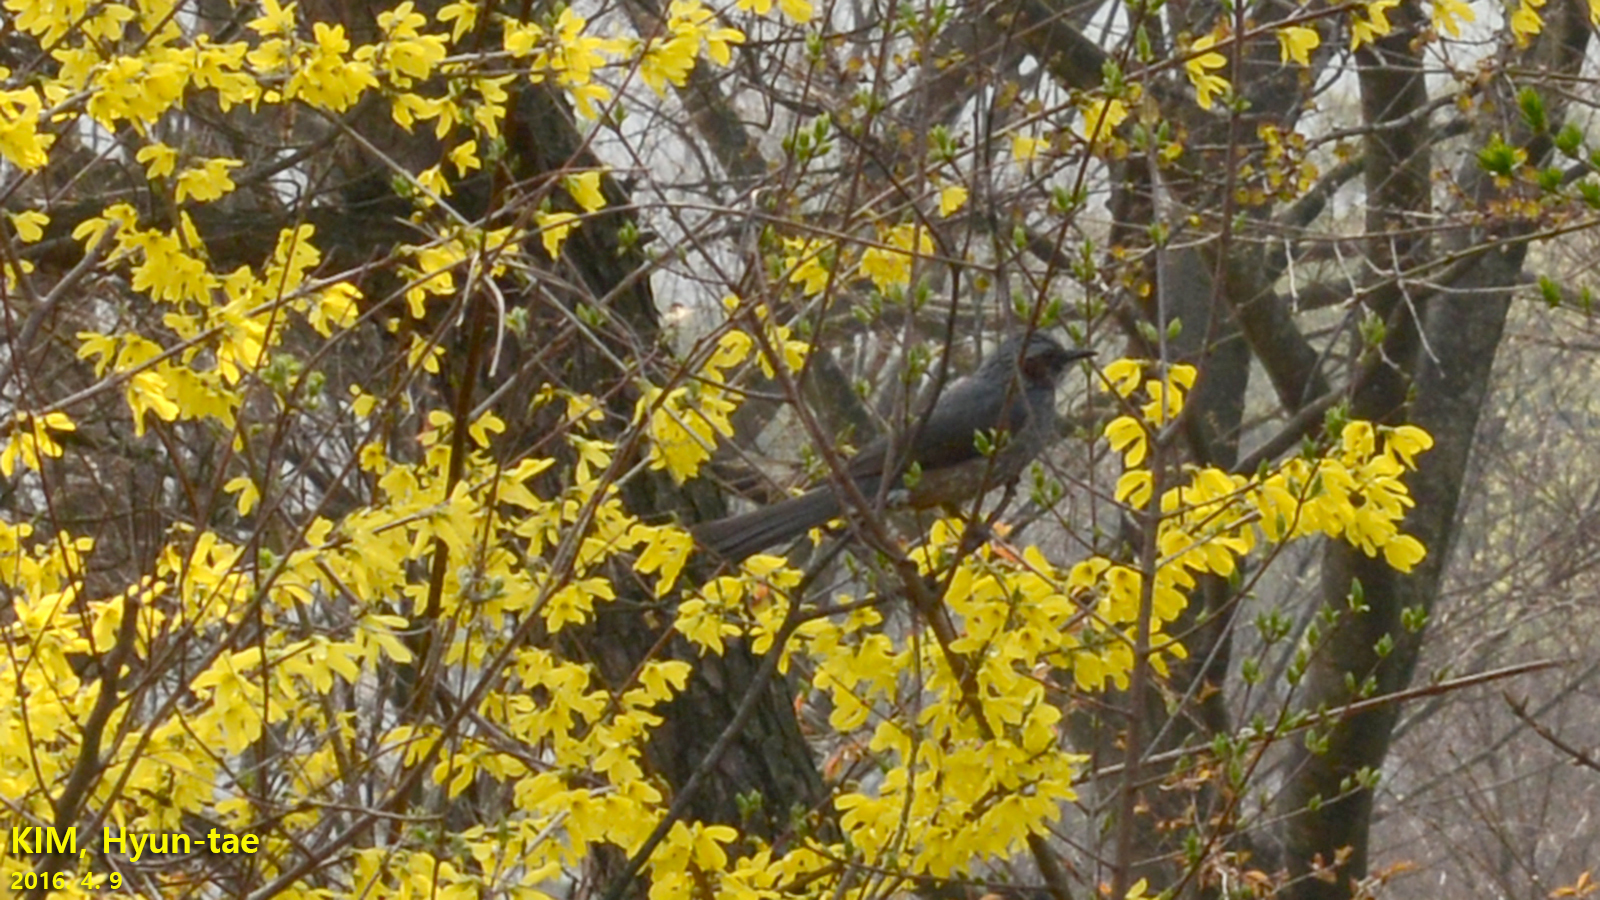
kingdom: Animalia
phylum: Chordata
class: Aves
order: Passeriformes
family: Pycnonotidae
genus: Hypsipetes
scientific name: Hypsipetes amaurotis
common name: Brown-eared bulbul
